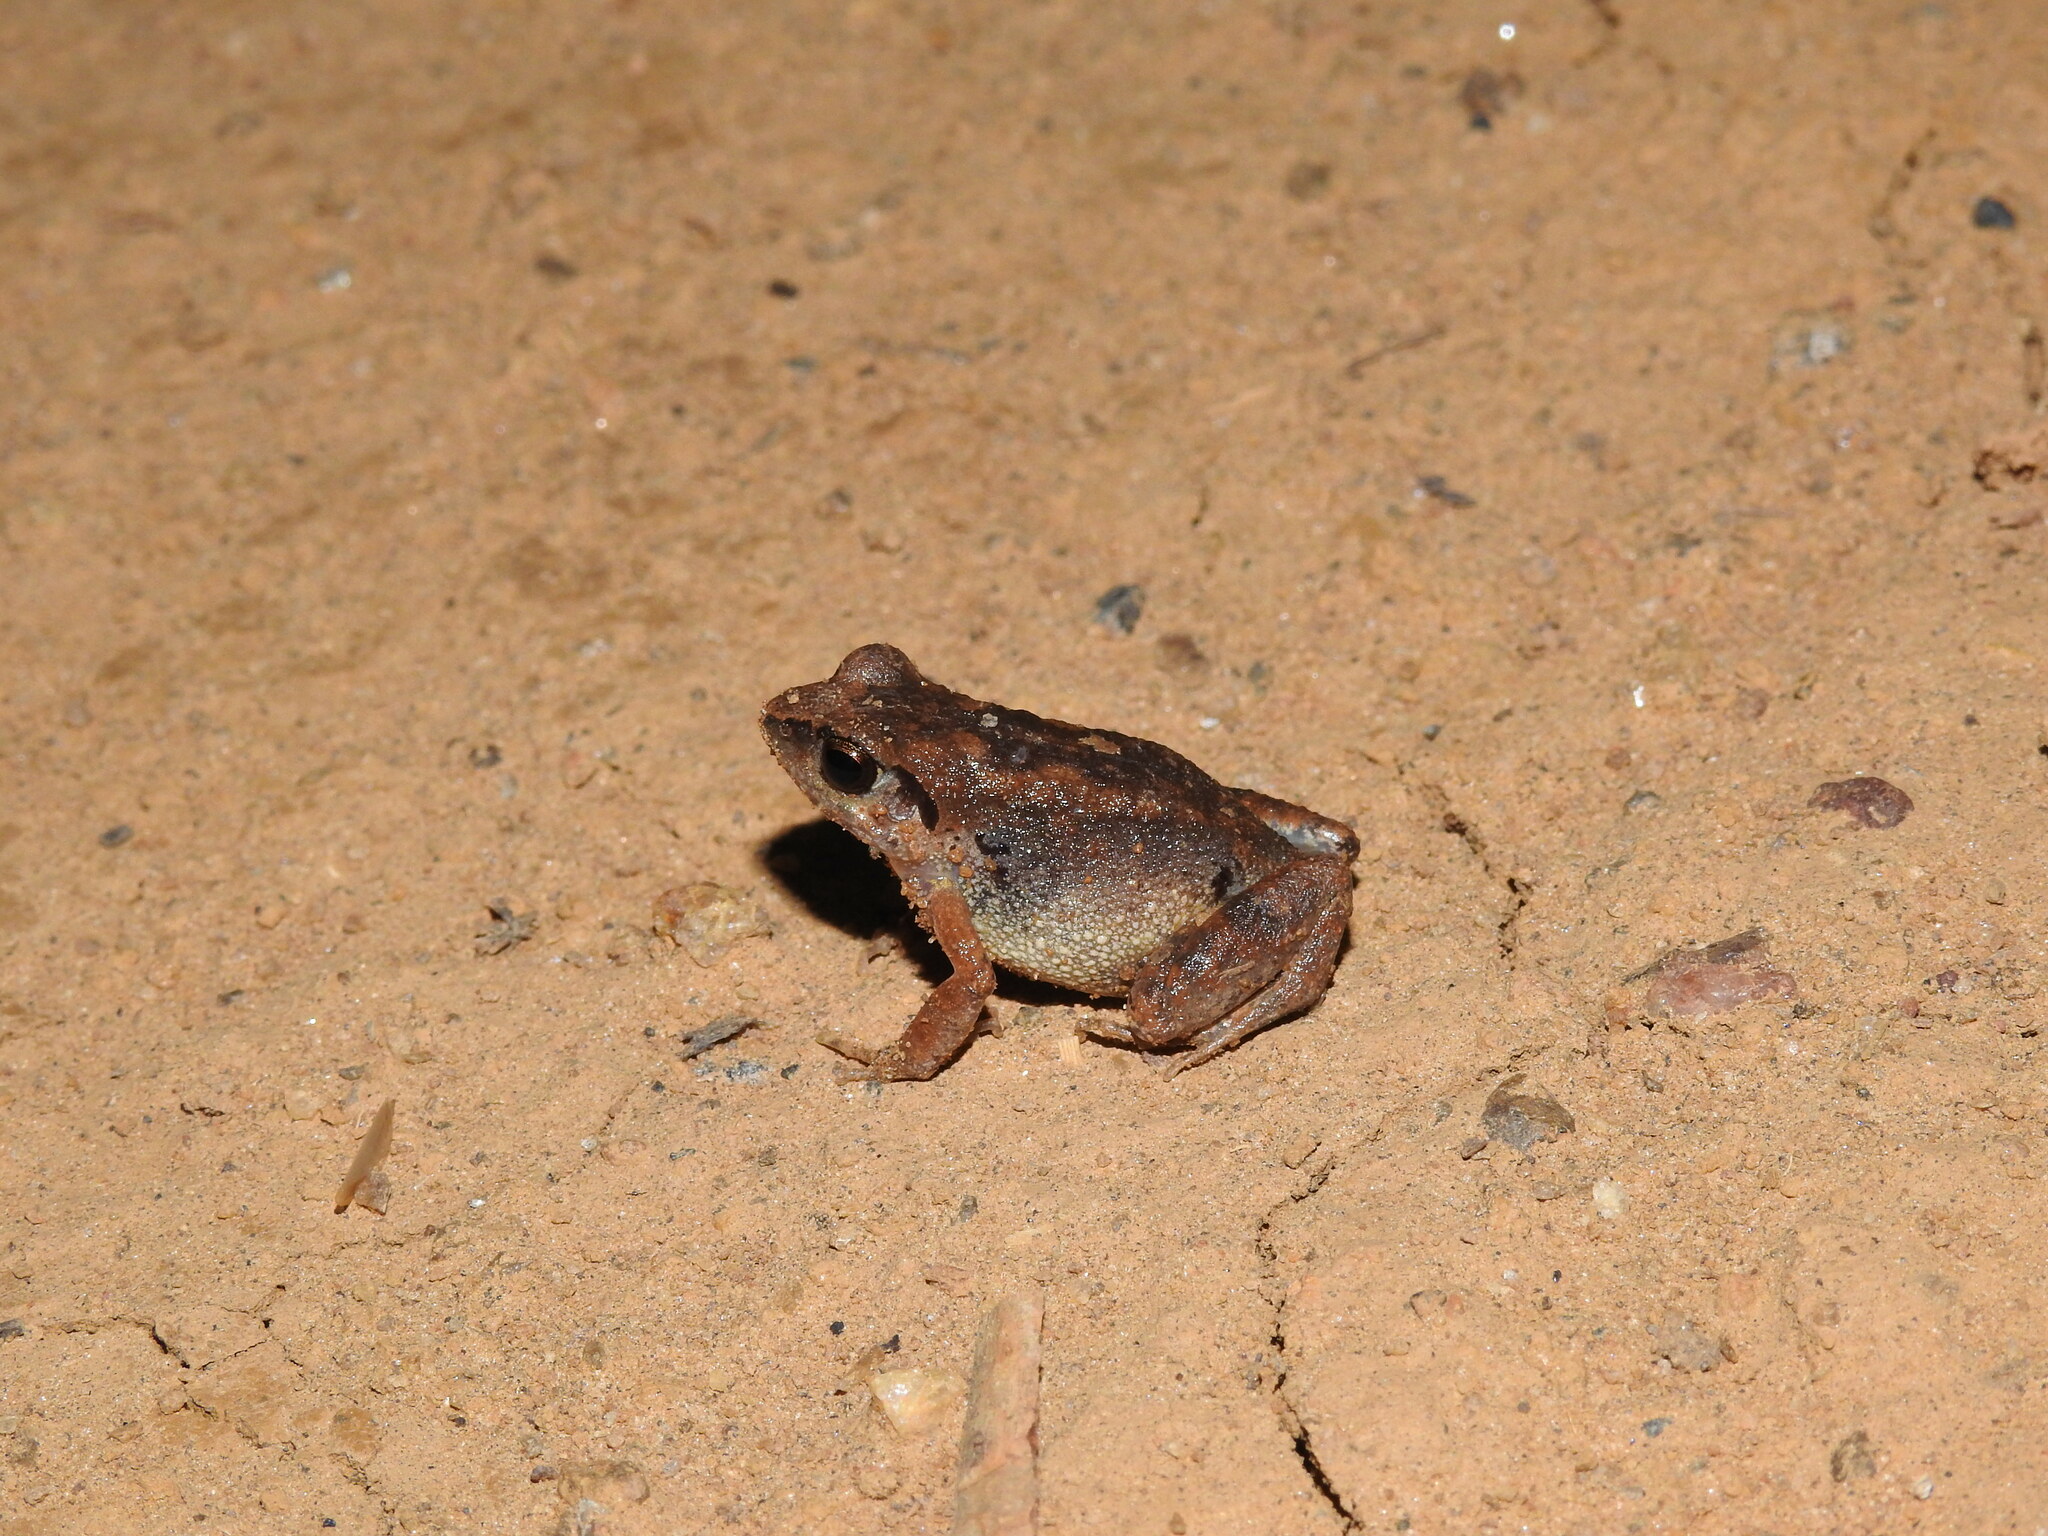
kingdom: Animalia
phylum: Chordata
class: Amphibia
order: Anura
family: Arthroleptidae
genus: Arthroleptis
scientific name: Arthroleptis poecilonotus
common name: West african screeching frog
